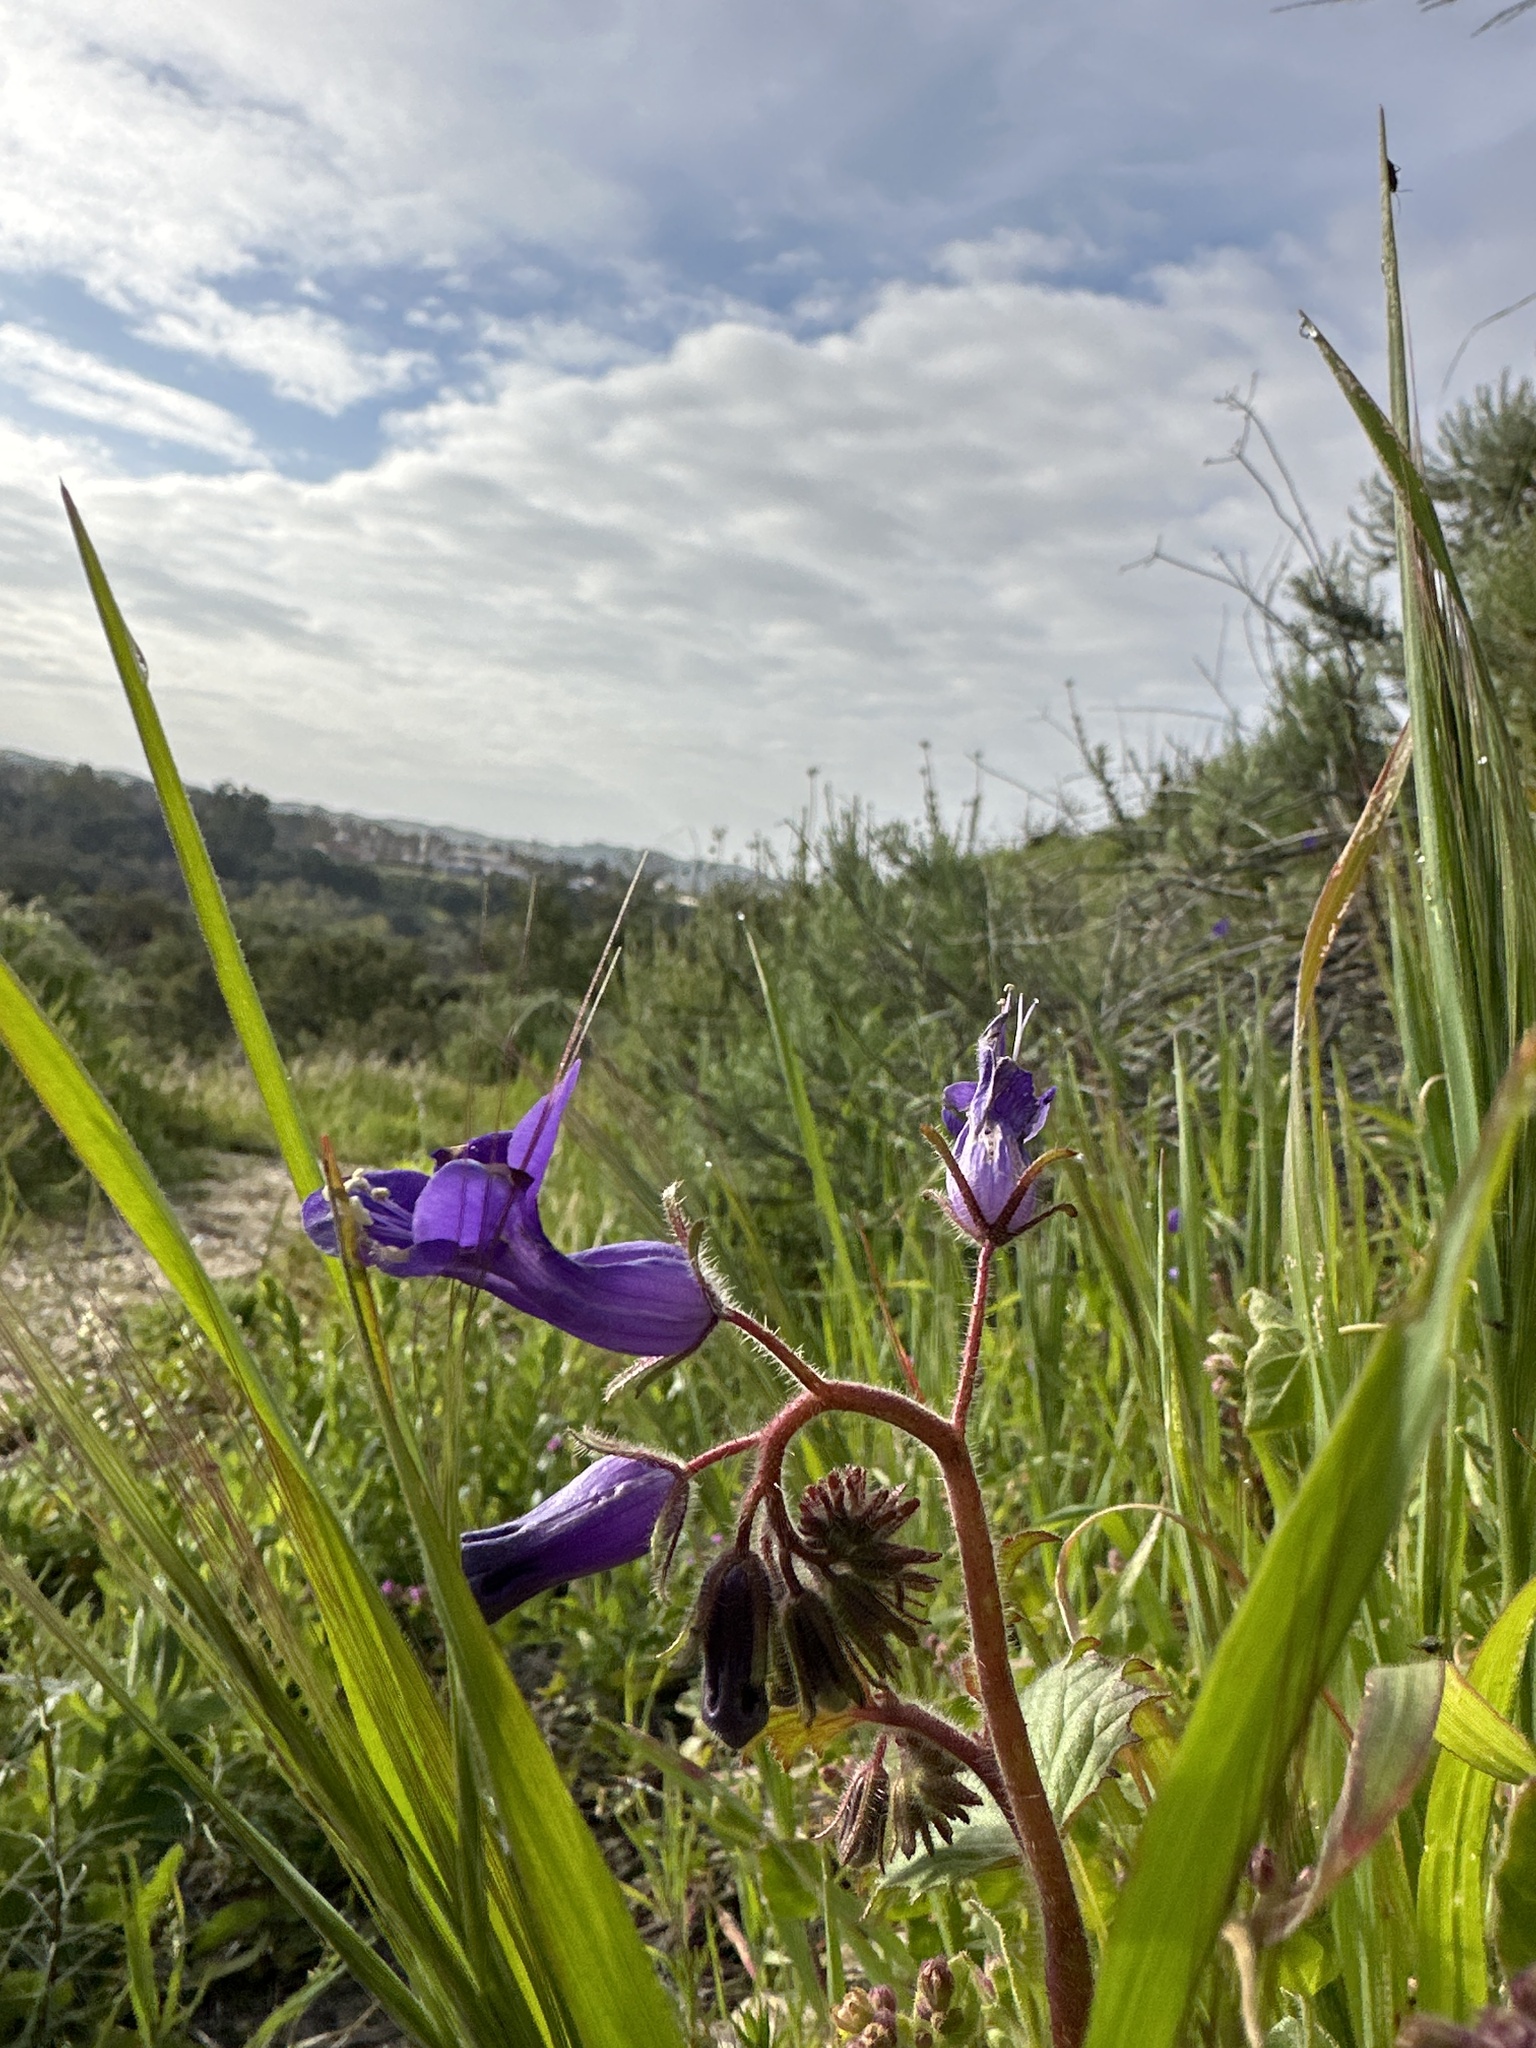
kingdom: Plantae
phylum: Tracheophyta
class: Magnoliopsida
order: Boraginales
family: Hydrophyllaceae
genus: Phacelia
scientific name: Phacelia minor
